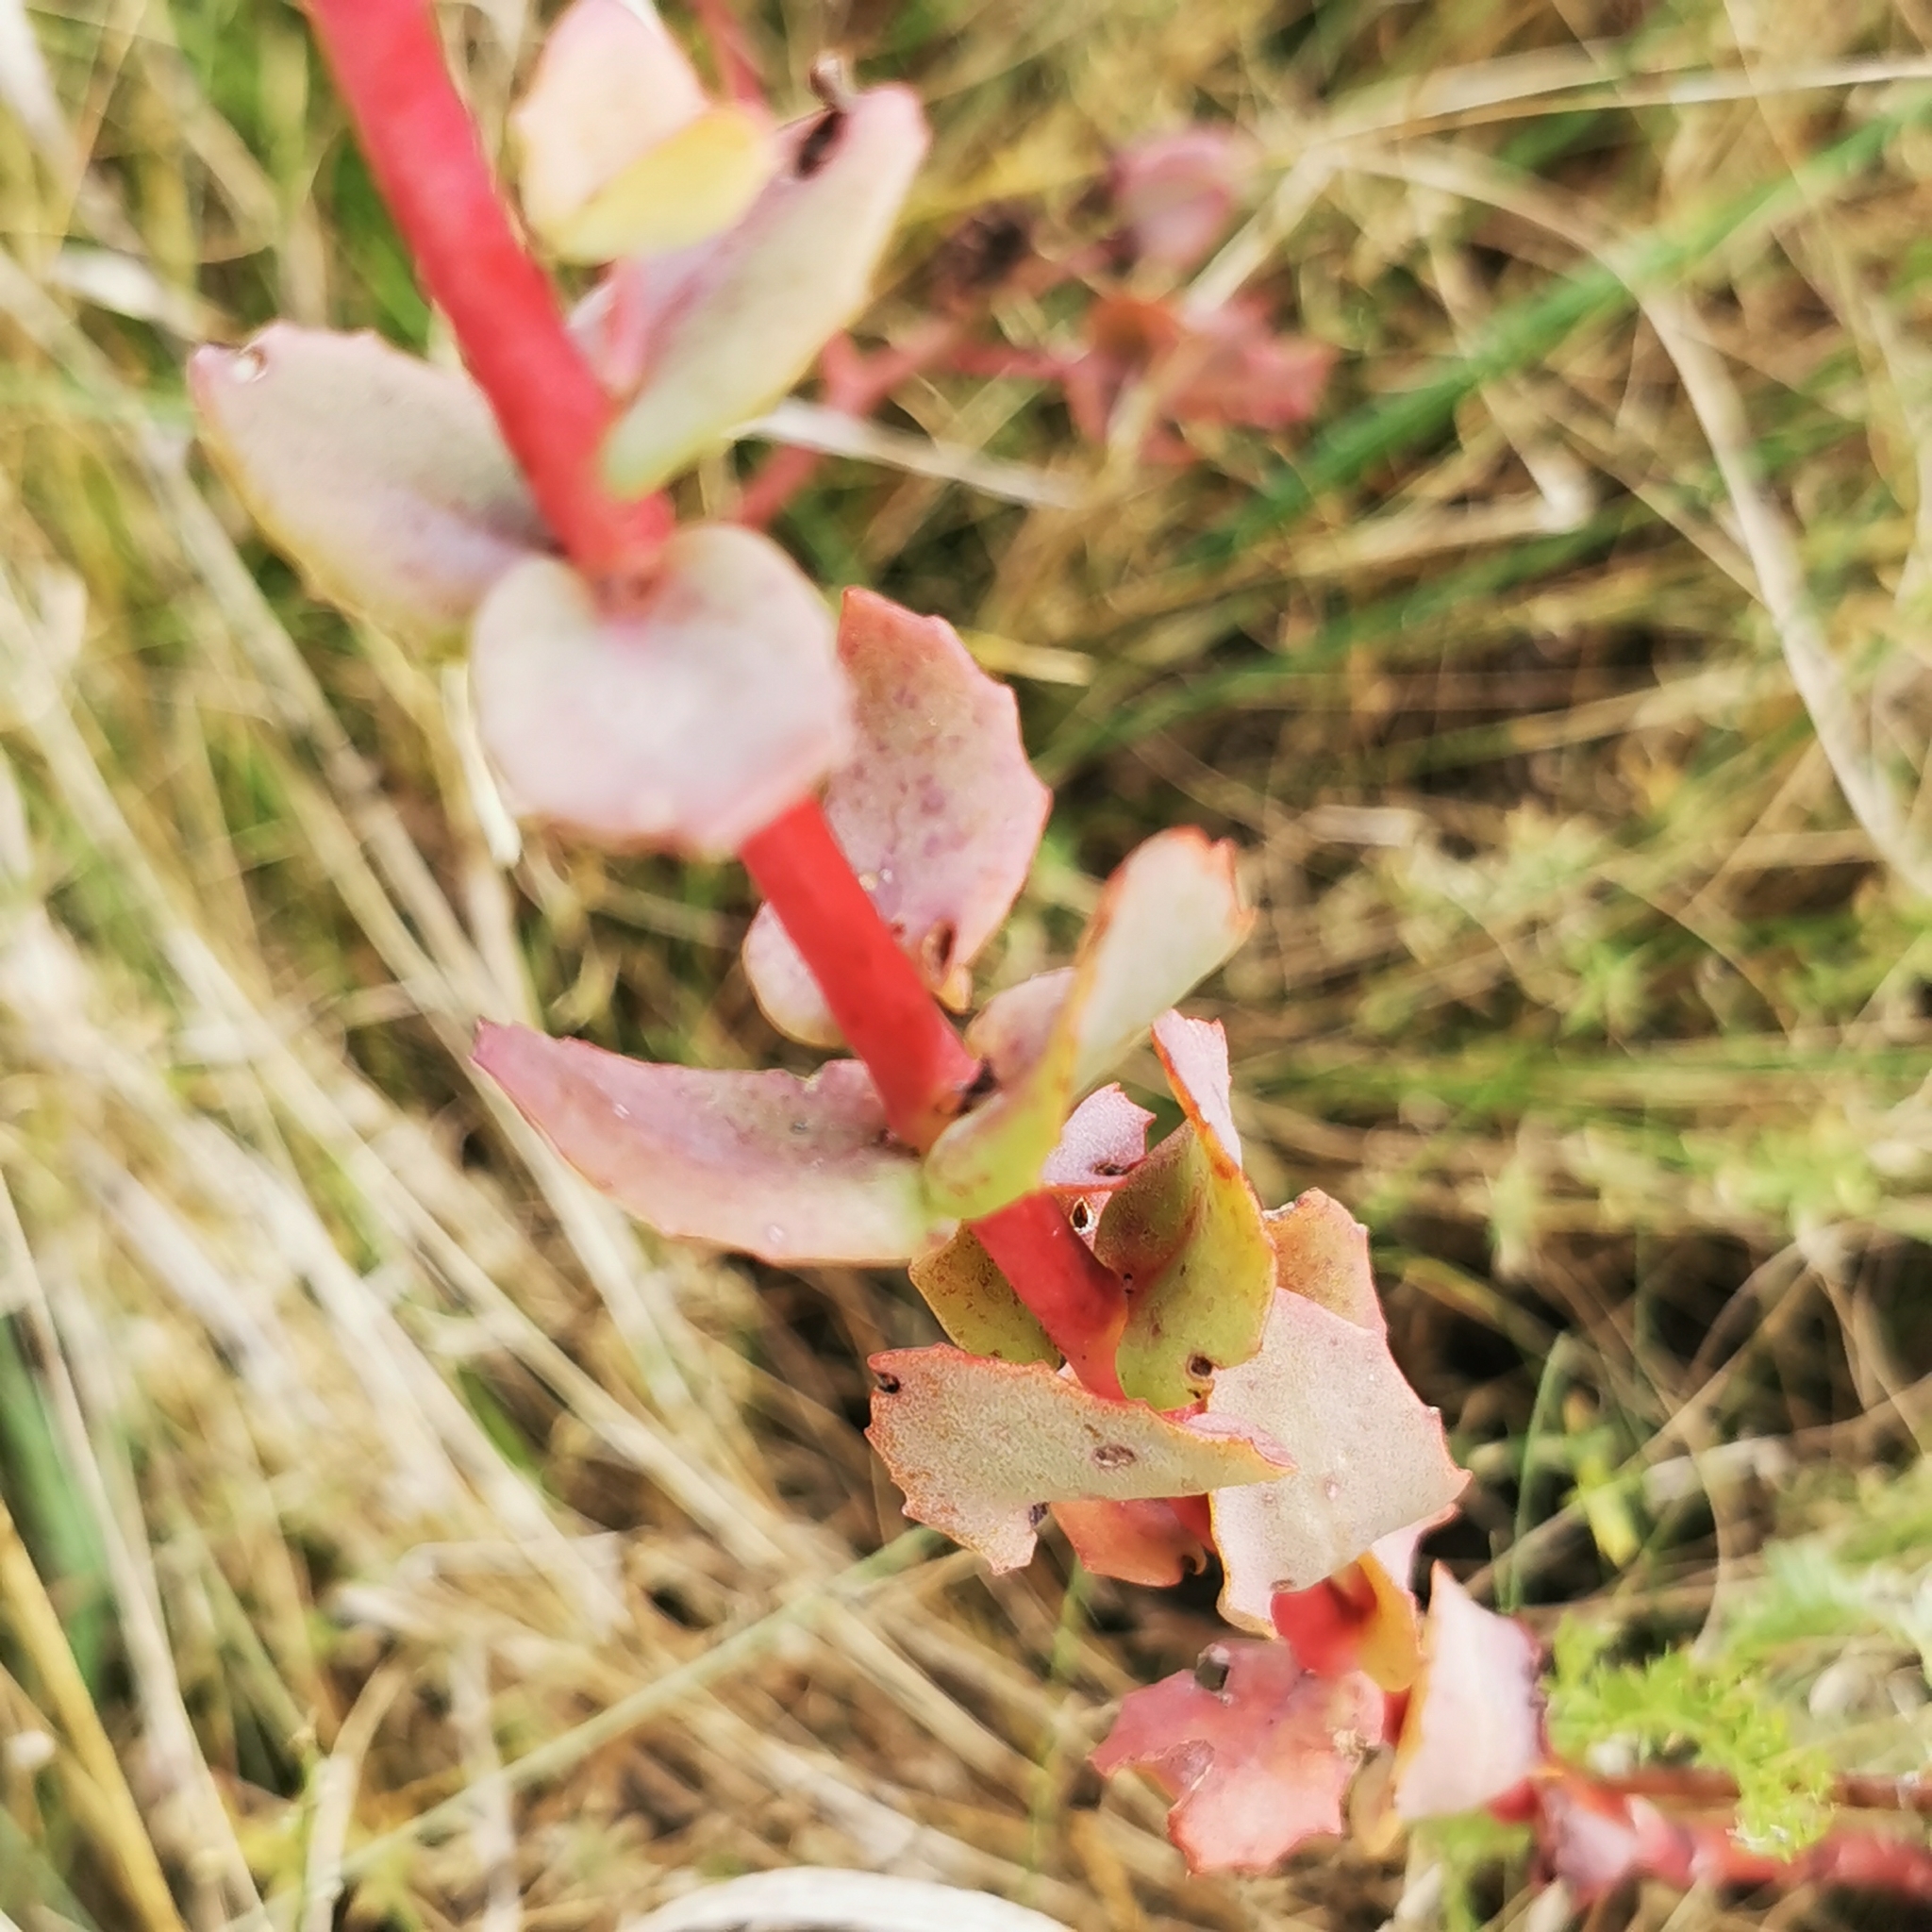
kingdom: Plantae
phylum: Tracheophyta
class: Magnoliopsida
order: Saxifragales
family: Crassulaceae
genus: Hylotelephium
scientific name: Hylotelephium maximum
